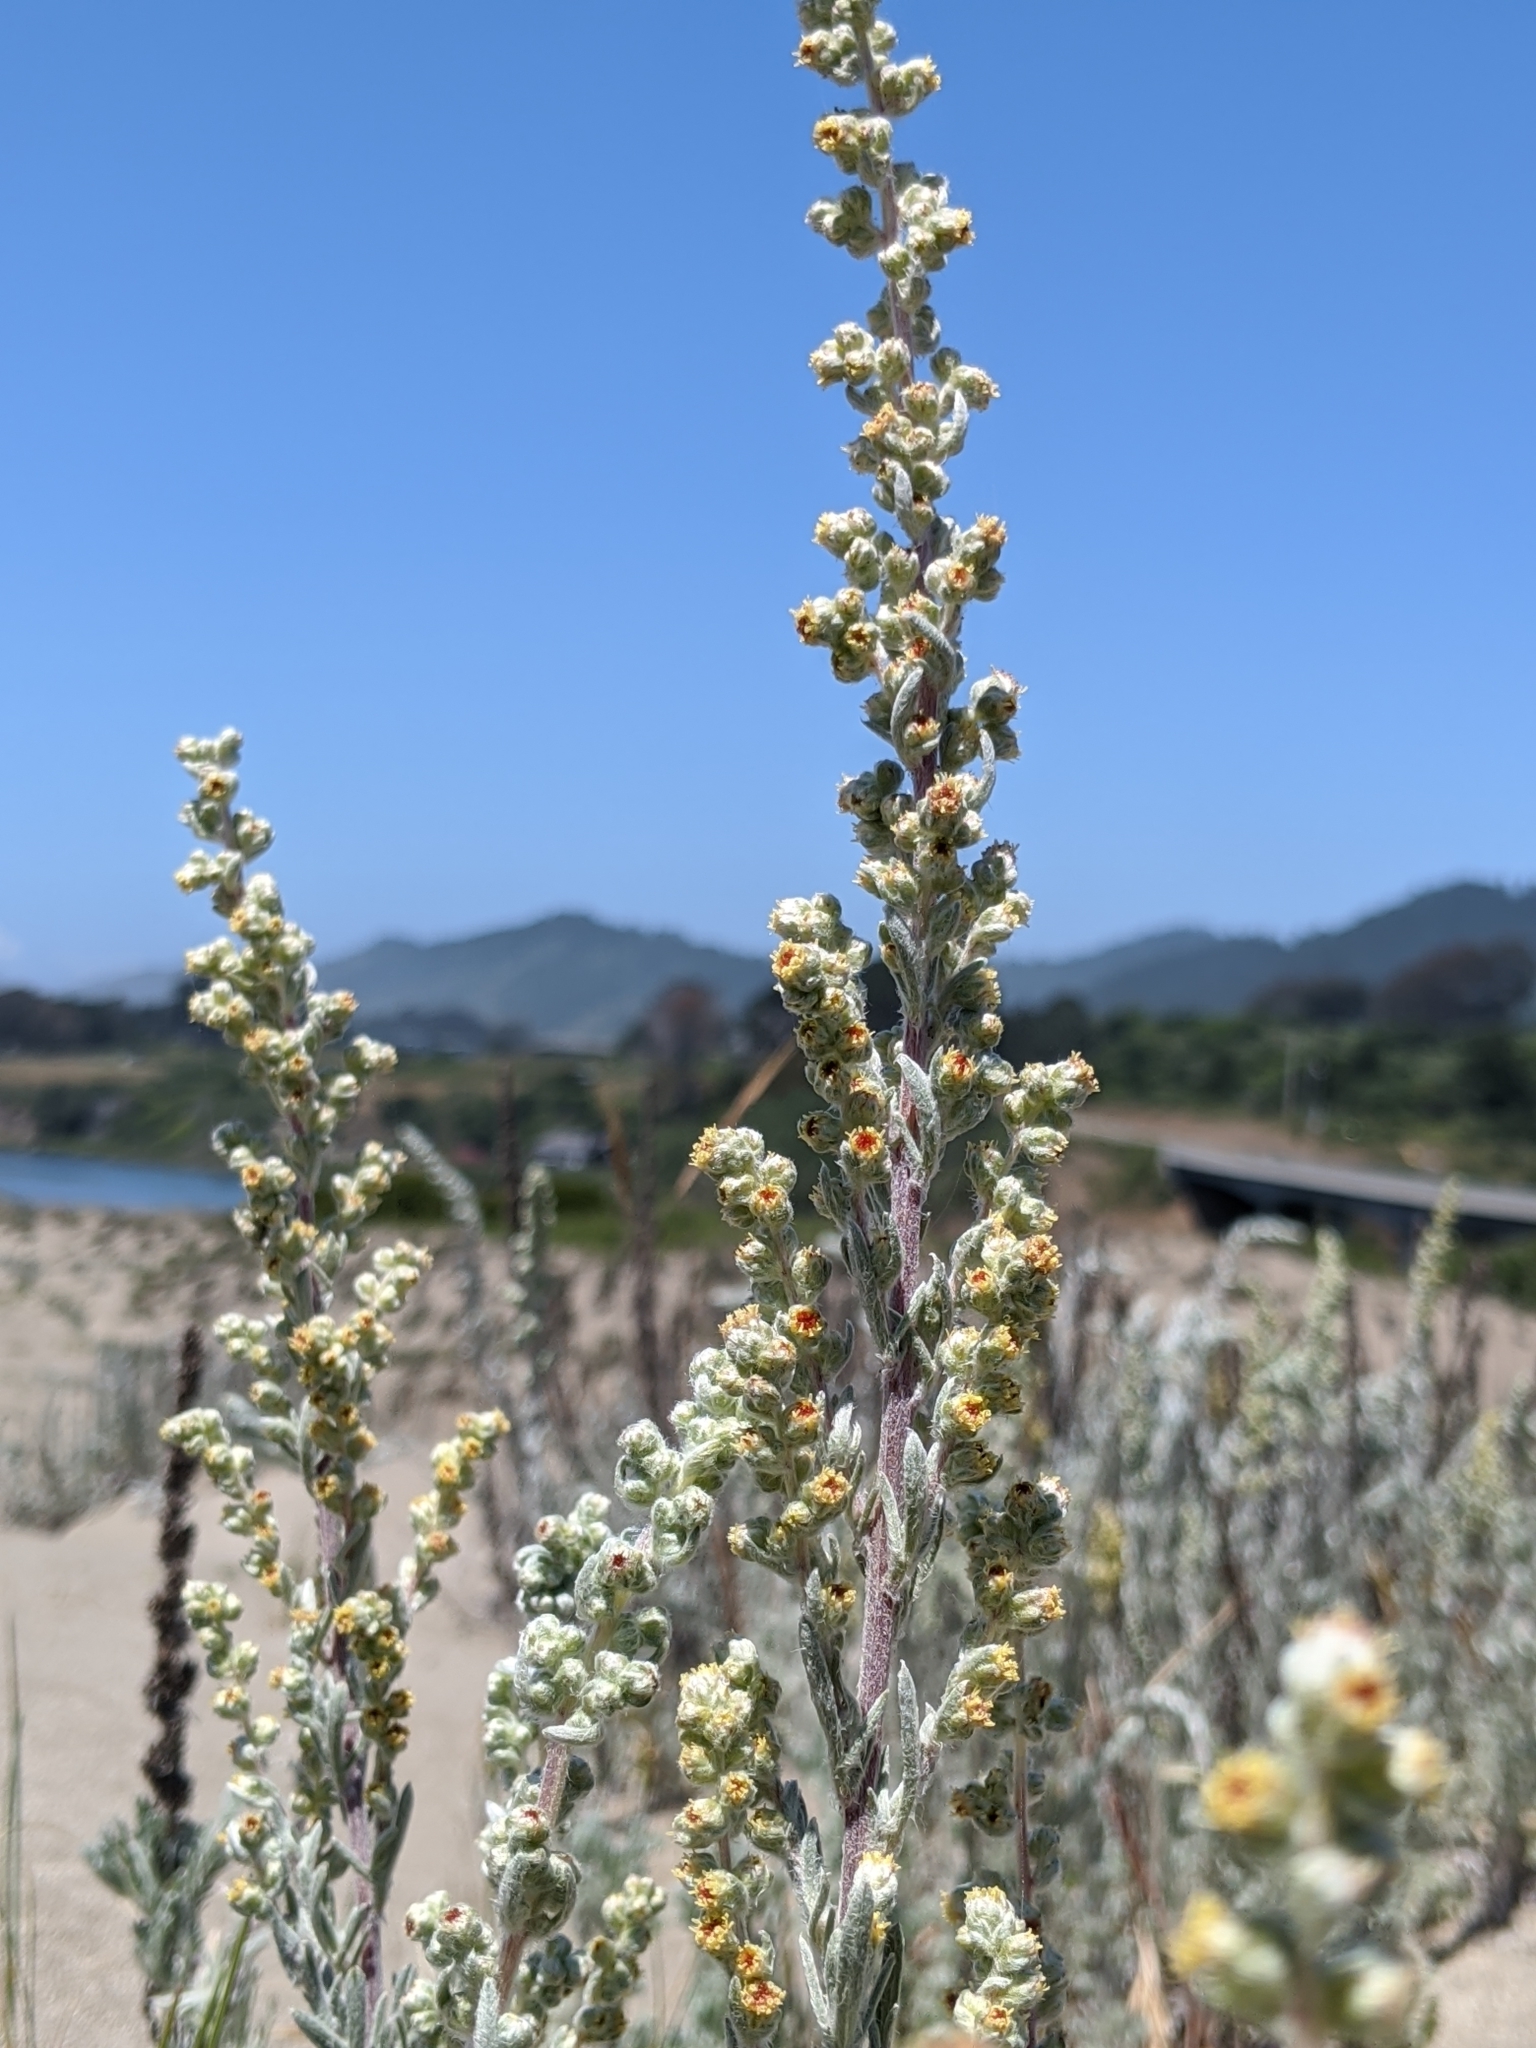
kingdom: Plantae
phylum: Tracheophyta
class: Magnoliopsida
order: Asterales
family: Asteraceae
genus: Artemisia
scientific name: Artemisia pycnocephala
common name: Coastal sagewort
